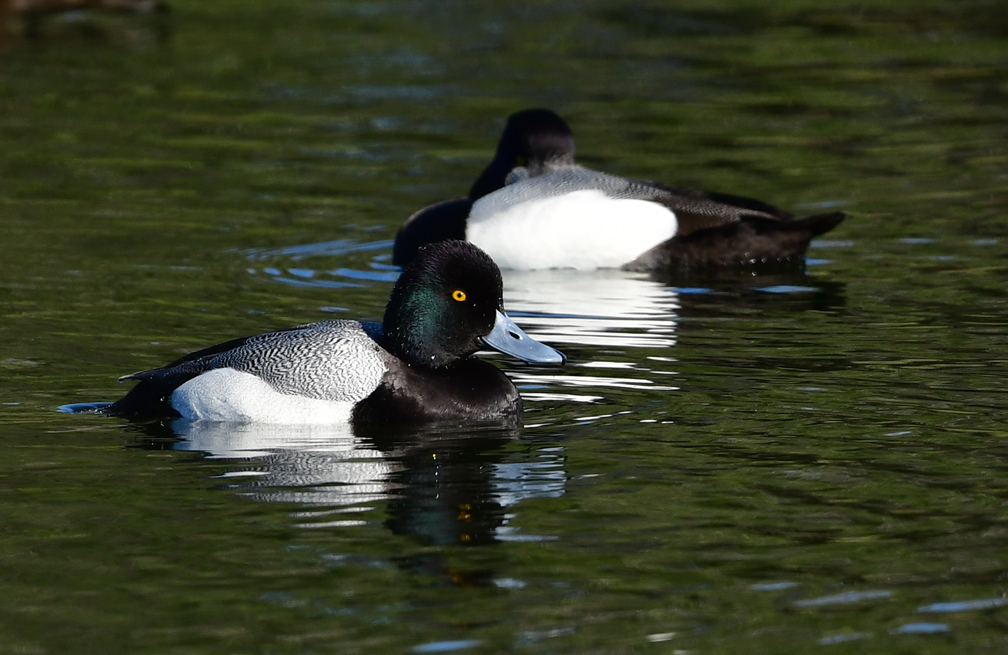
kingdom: Animalia
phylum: Chordata
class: Aves
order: Anseriformes
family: Anatidae
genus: Aythya
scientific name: Aythya affinis
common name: Lesser scaup
